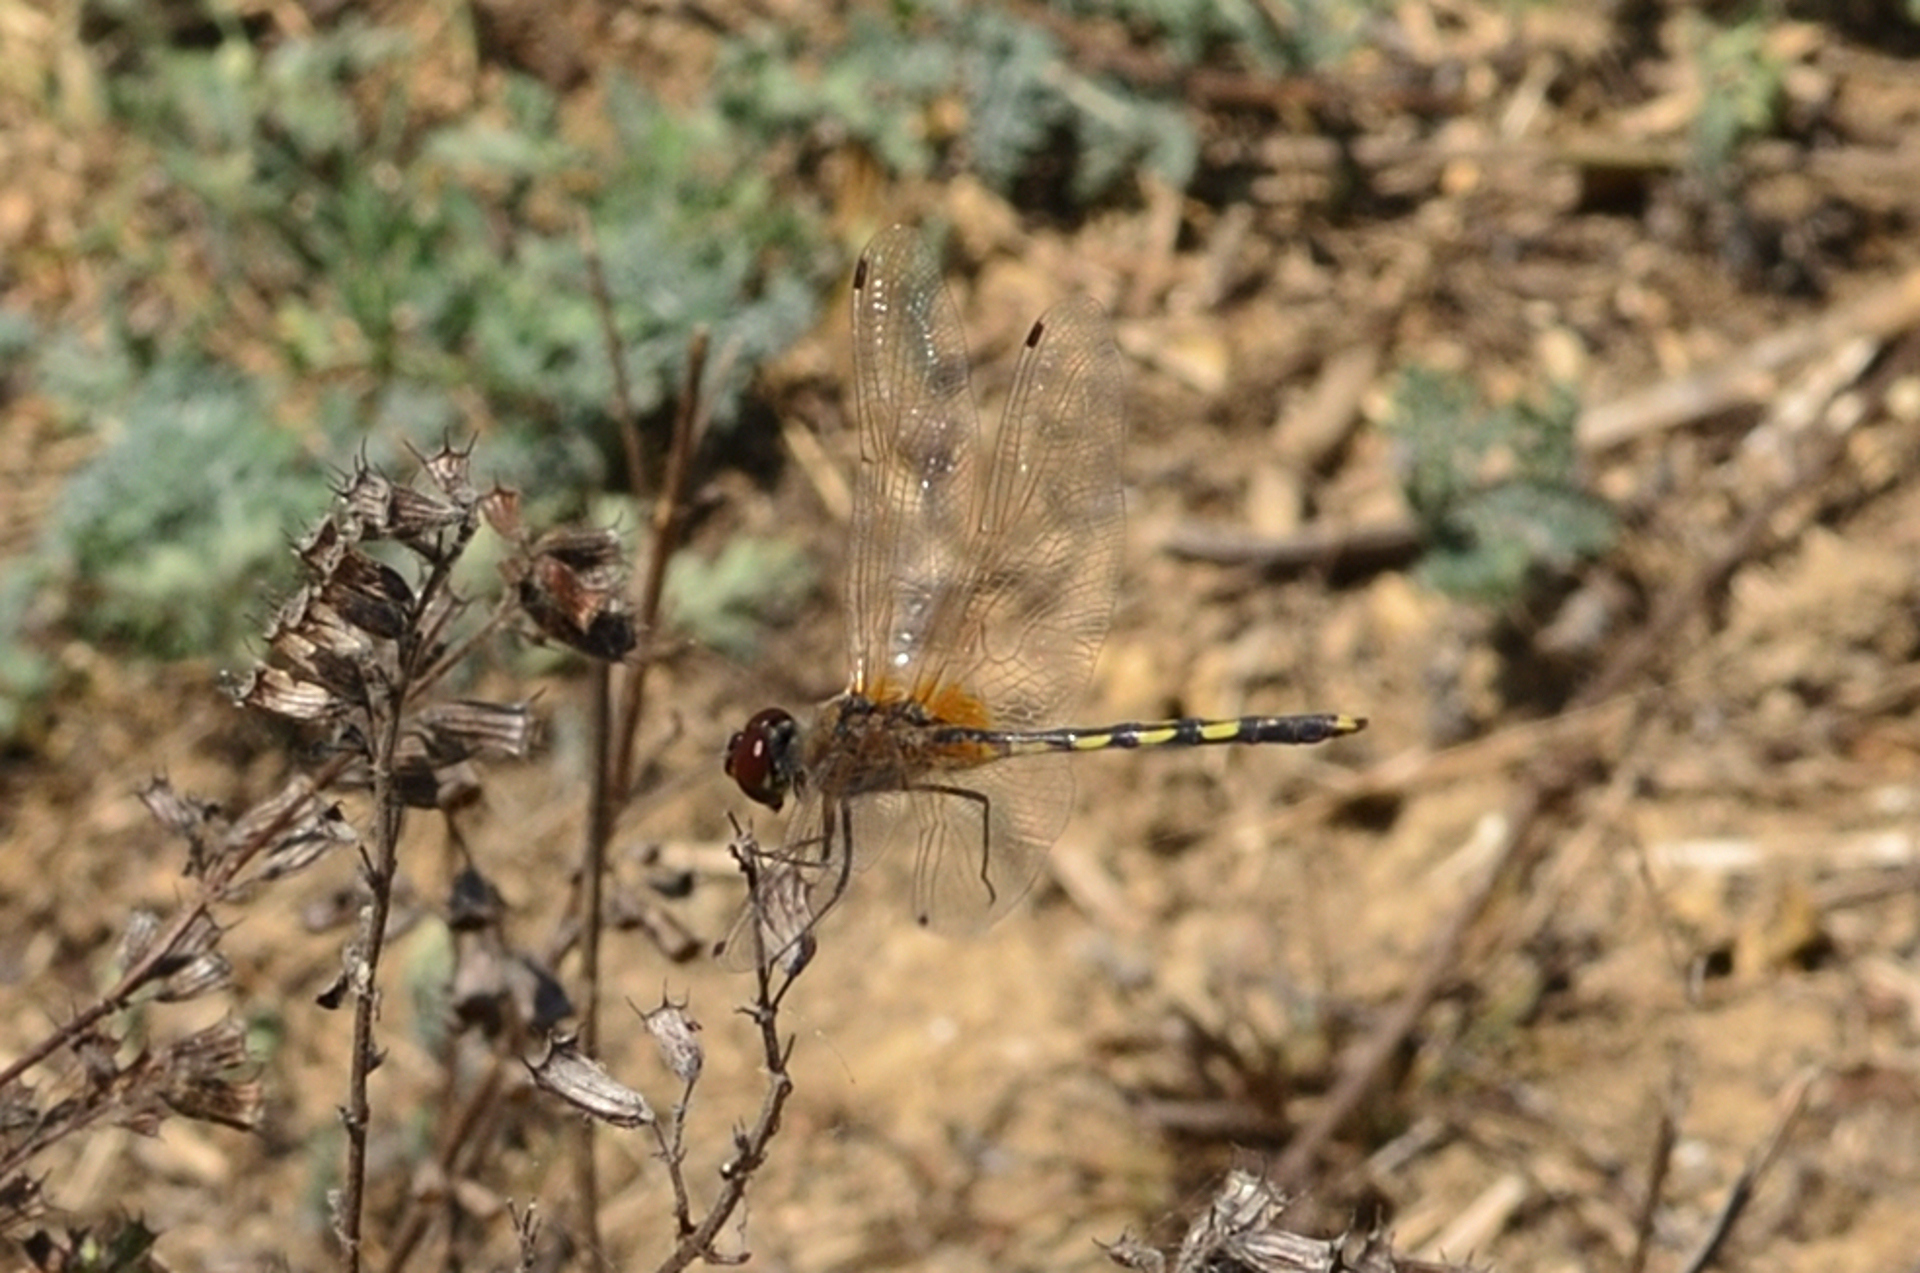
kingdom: Animalia
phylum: Arthropoda
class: Insecta
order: Odonata
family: Libellulidae
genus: Trithemis
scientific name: Trithemis pallidinervis
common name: Dancing dropwing
